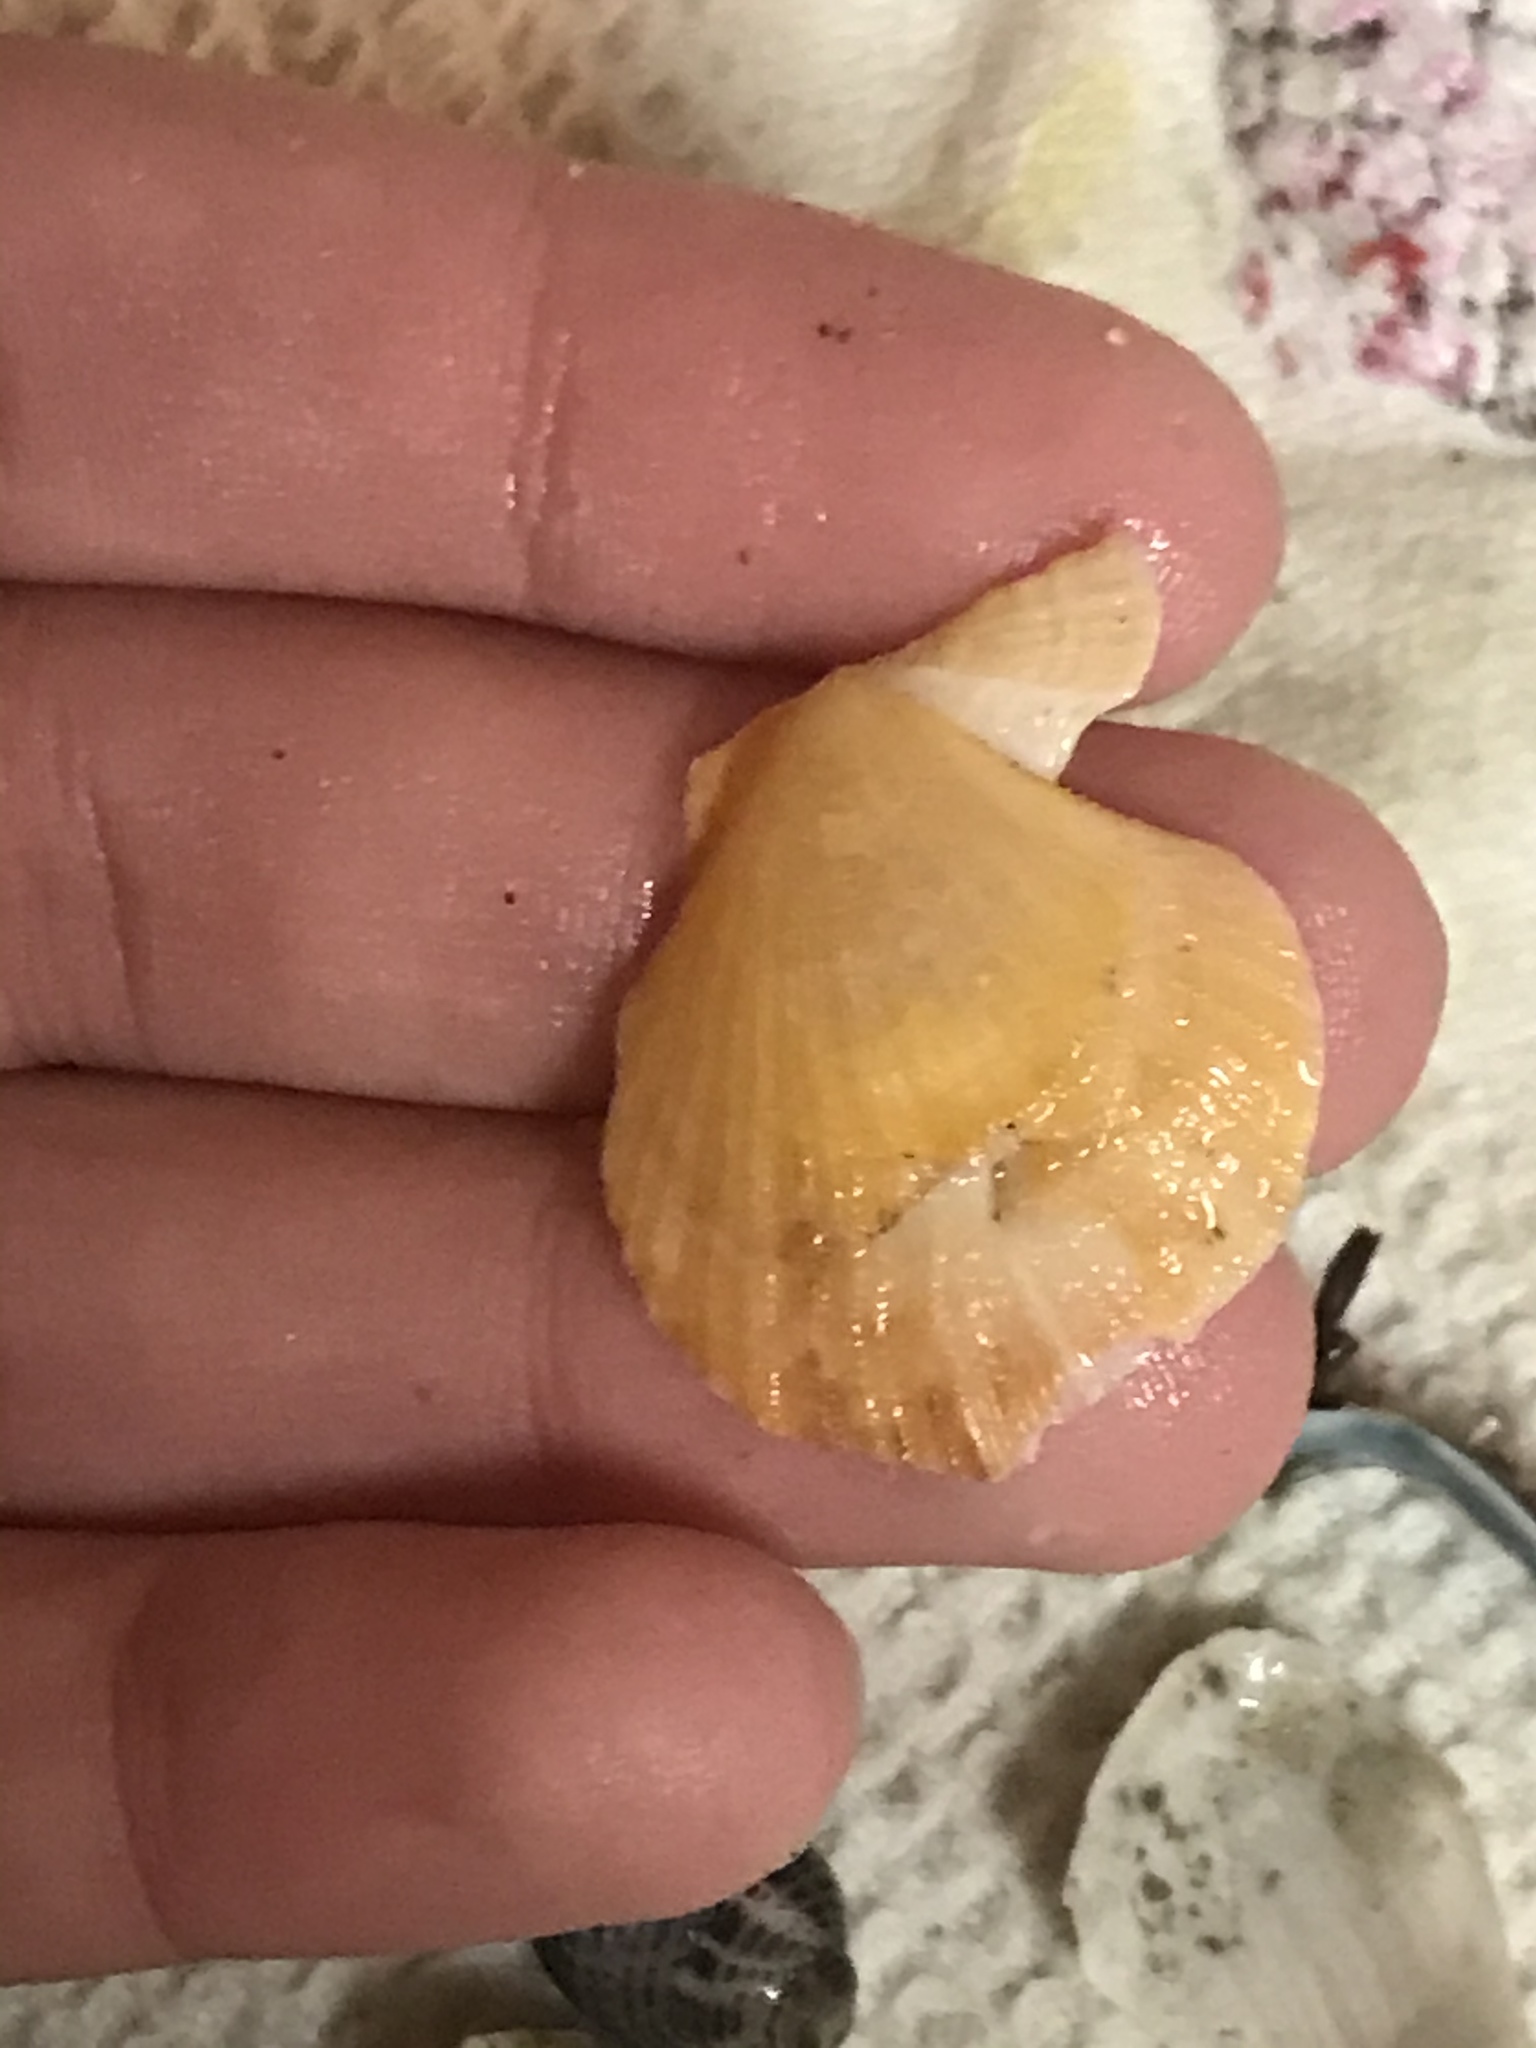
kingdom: Animalia
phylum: Mollusca
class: Bivalvia
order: Pectinida
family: Pectinidae
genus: Crassadoma
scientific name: Crassadoma gigantea
